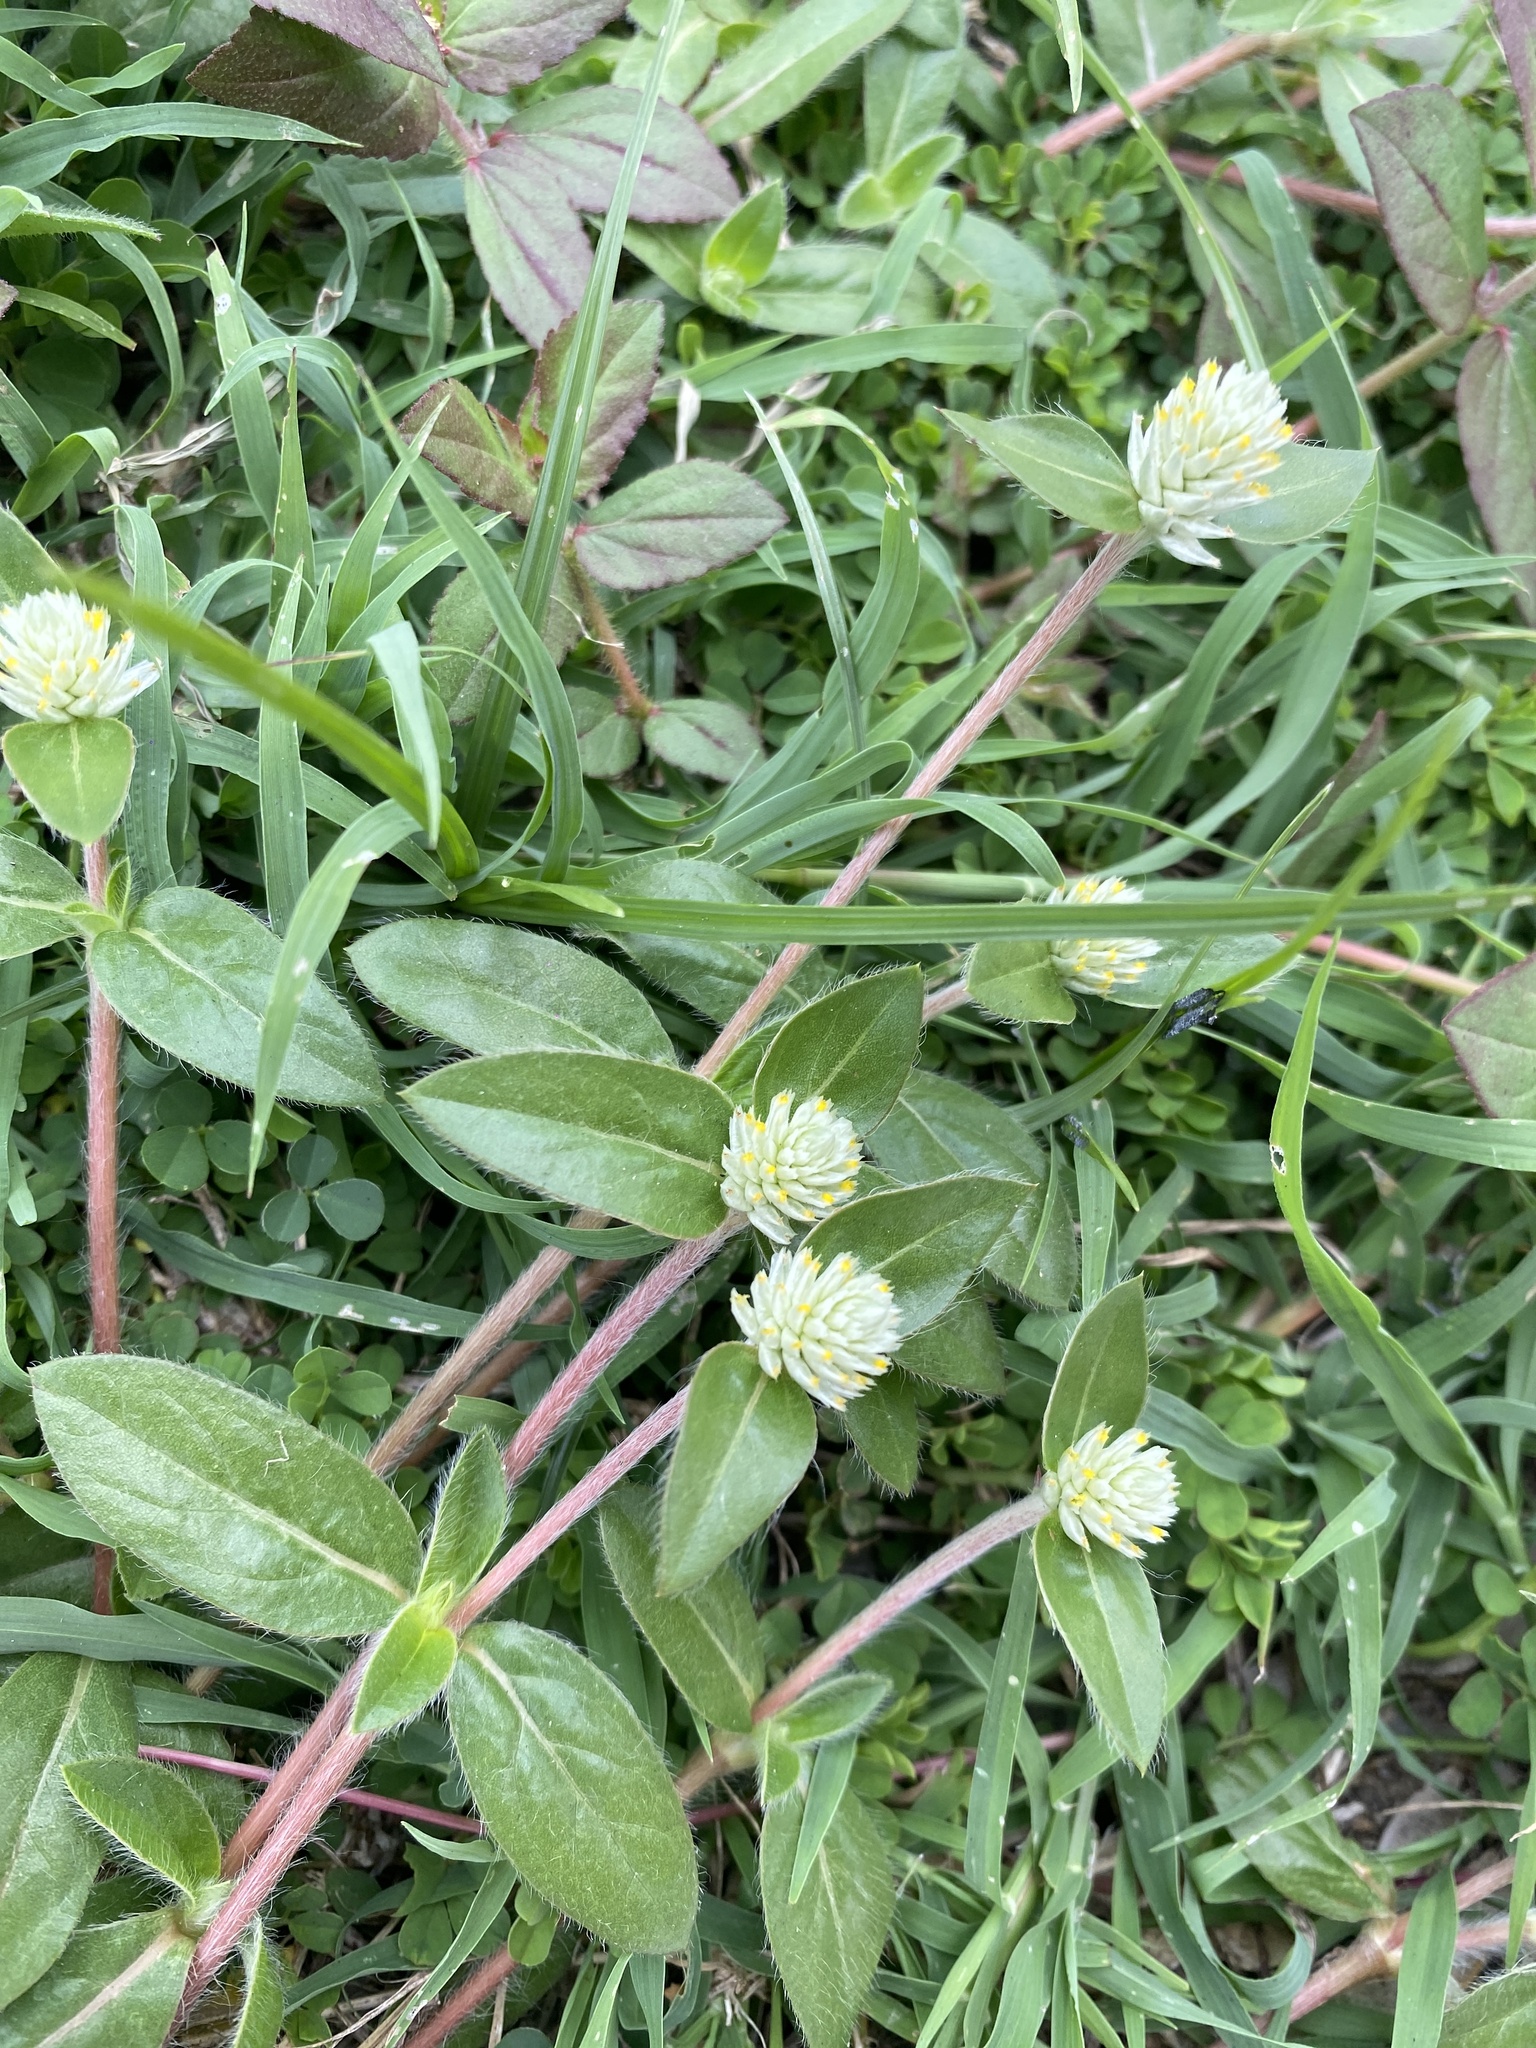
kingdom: Plantae
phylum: Tracheophyta
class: Magnoliopsida
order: Caryophyllales
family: Amaranthaceae
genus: Gomphrena
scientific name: Gomphrena celosioides
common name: Gomphrena-weed
